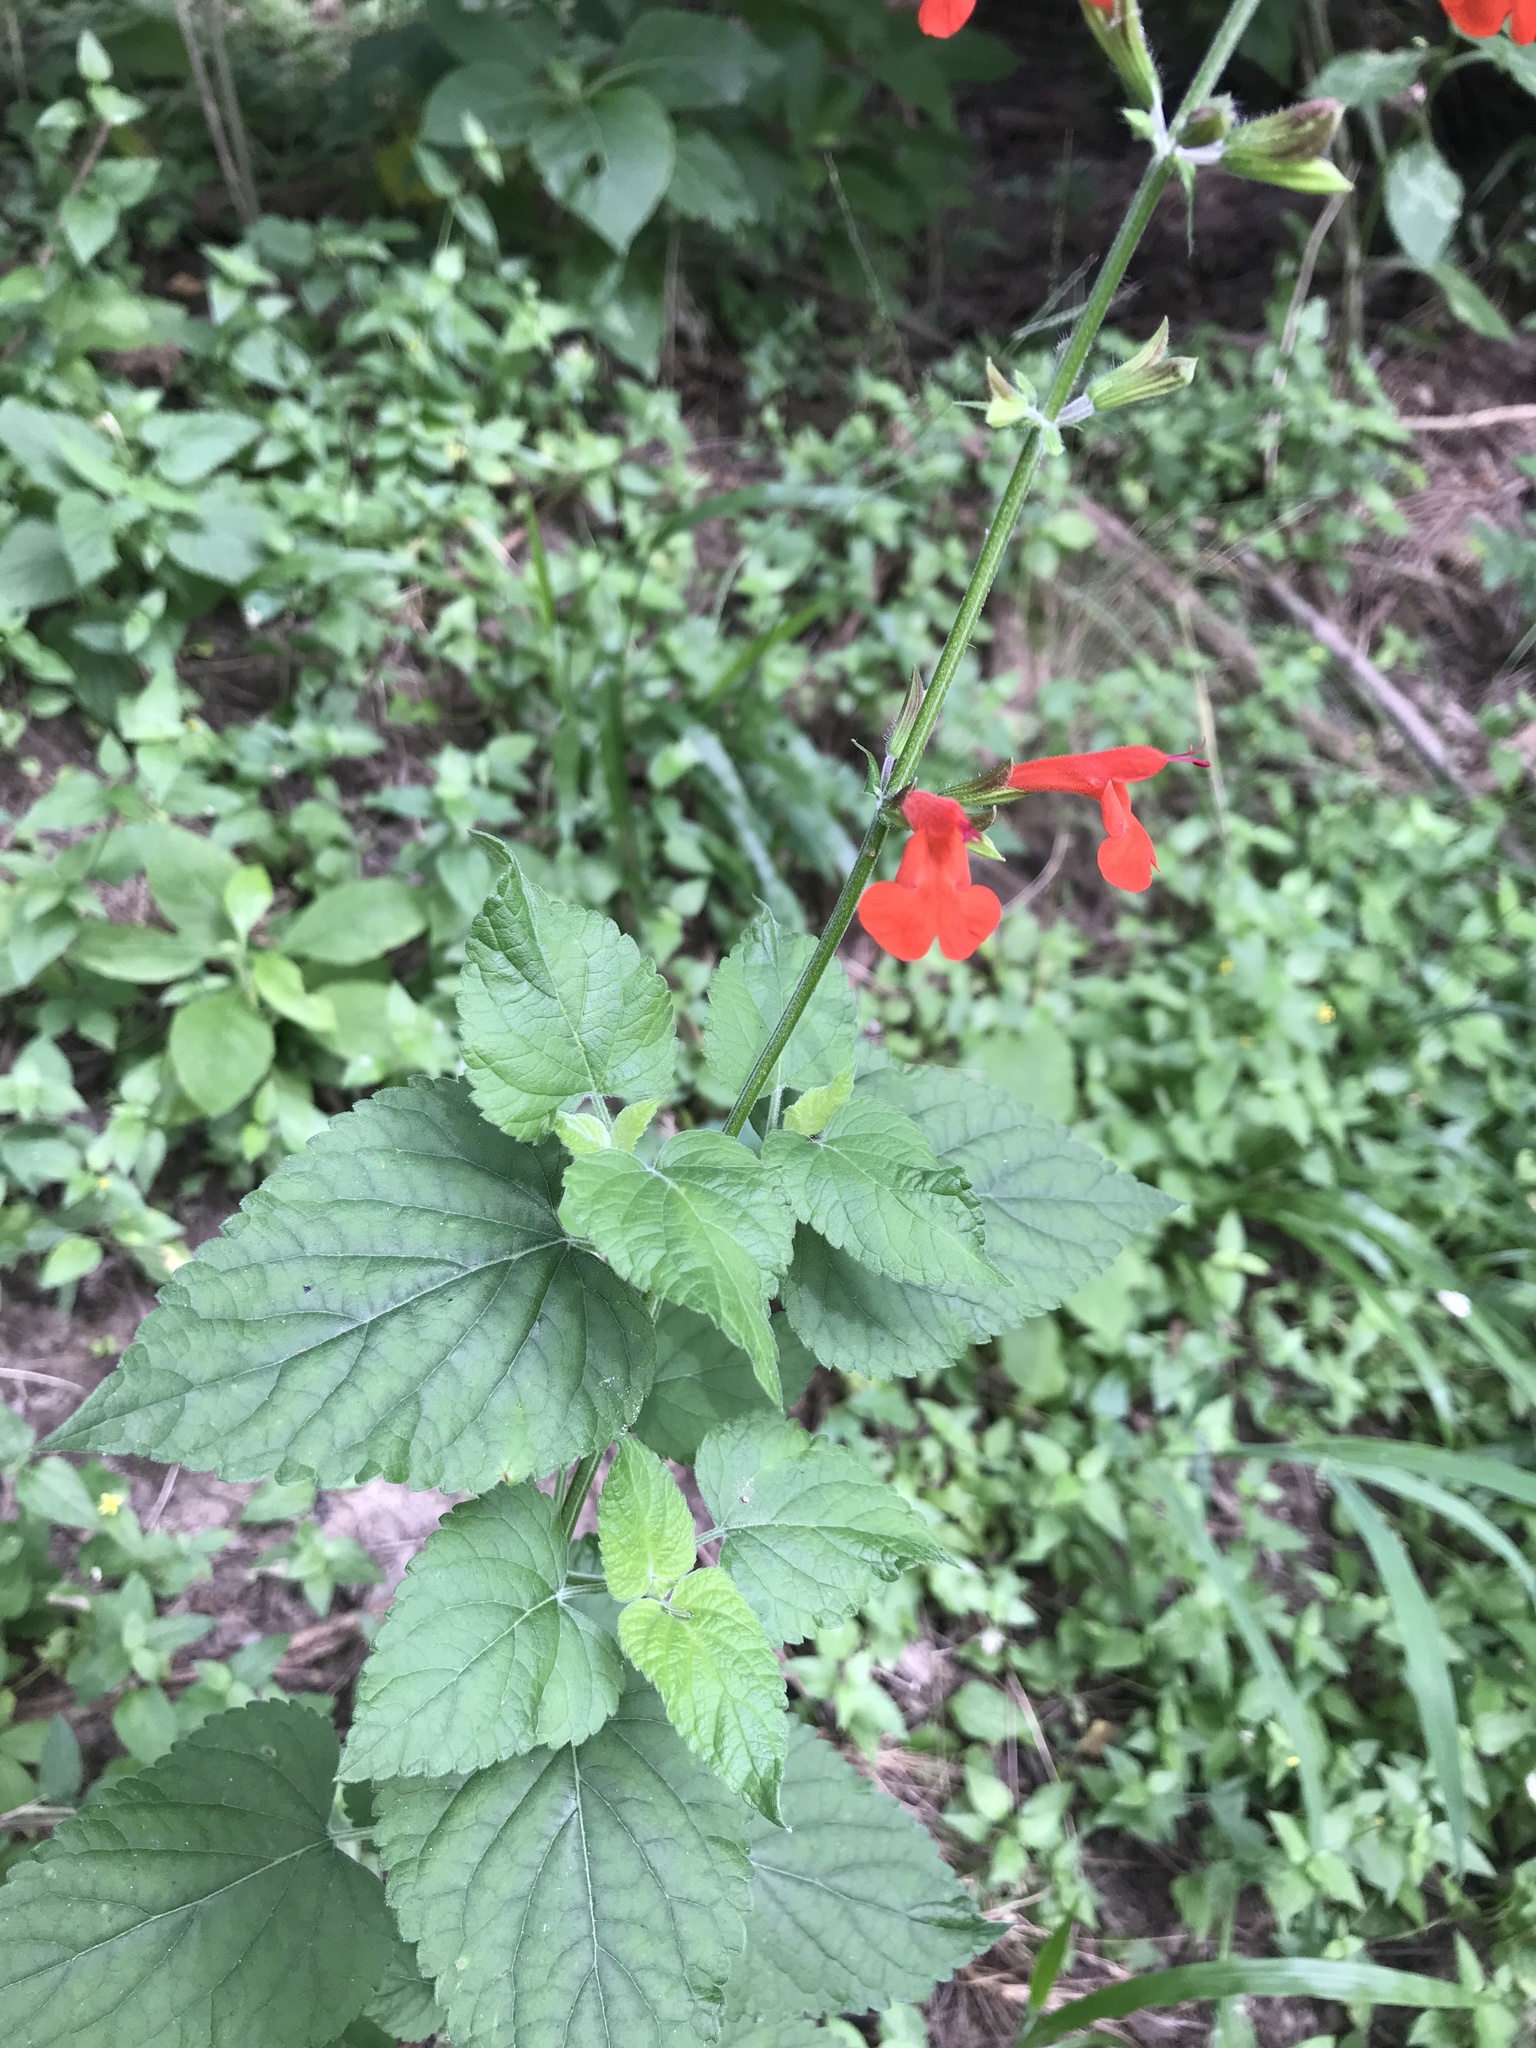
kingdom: Plantae
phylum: Tracheophyta
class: Magnoliopsida
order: Lamiales
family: Lamiaceae
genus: Salvia
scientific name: Salvia coccinea
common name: Blood sage
